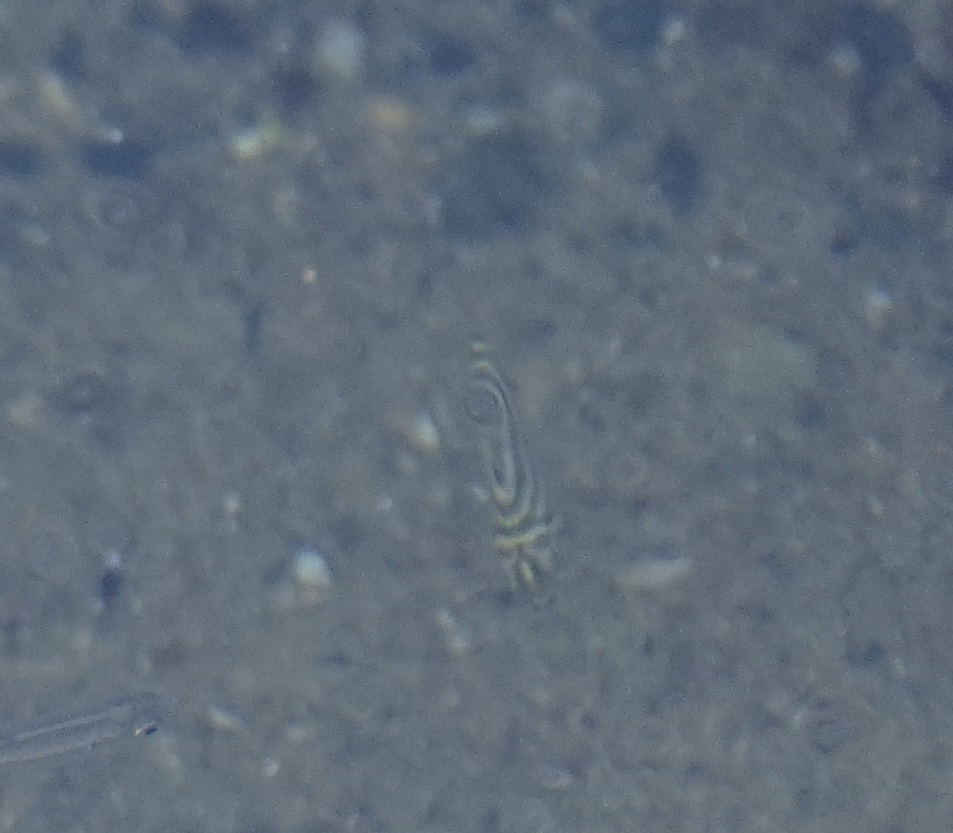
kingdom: Animalia
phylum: Chordata
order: Perciformes
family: Kyphosidae
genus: Microcanthus
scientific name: Microcanthus joyceae
